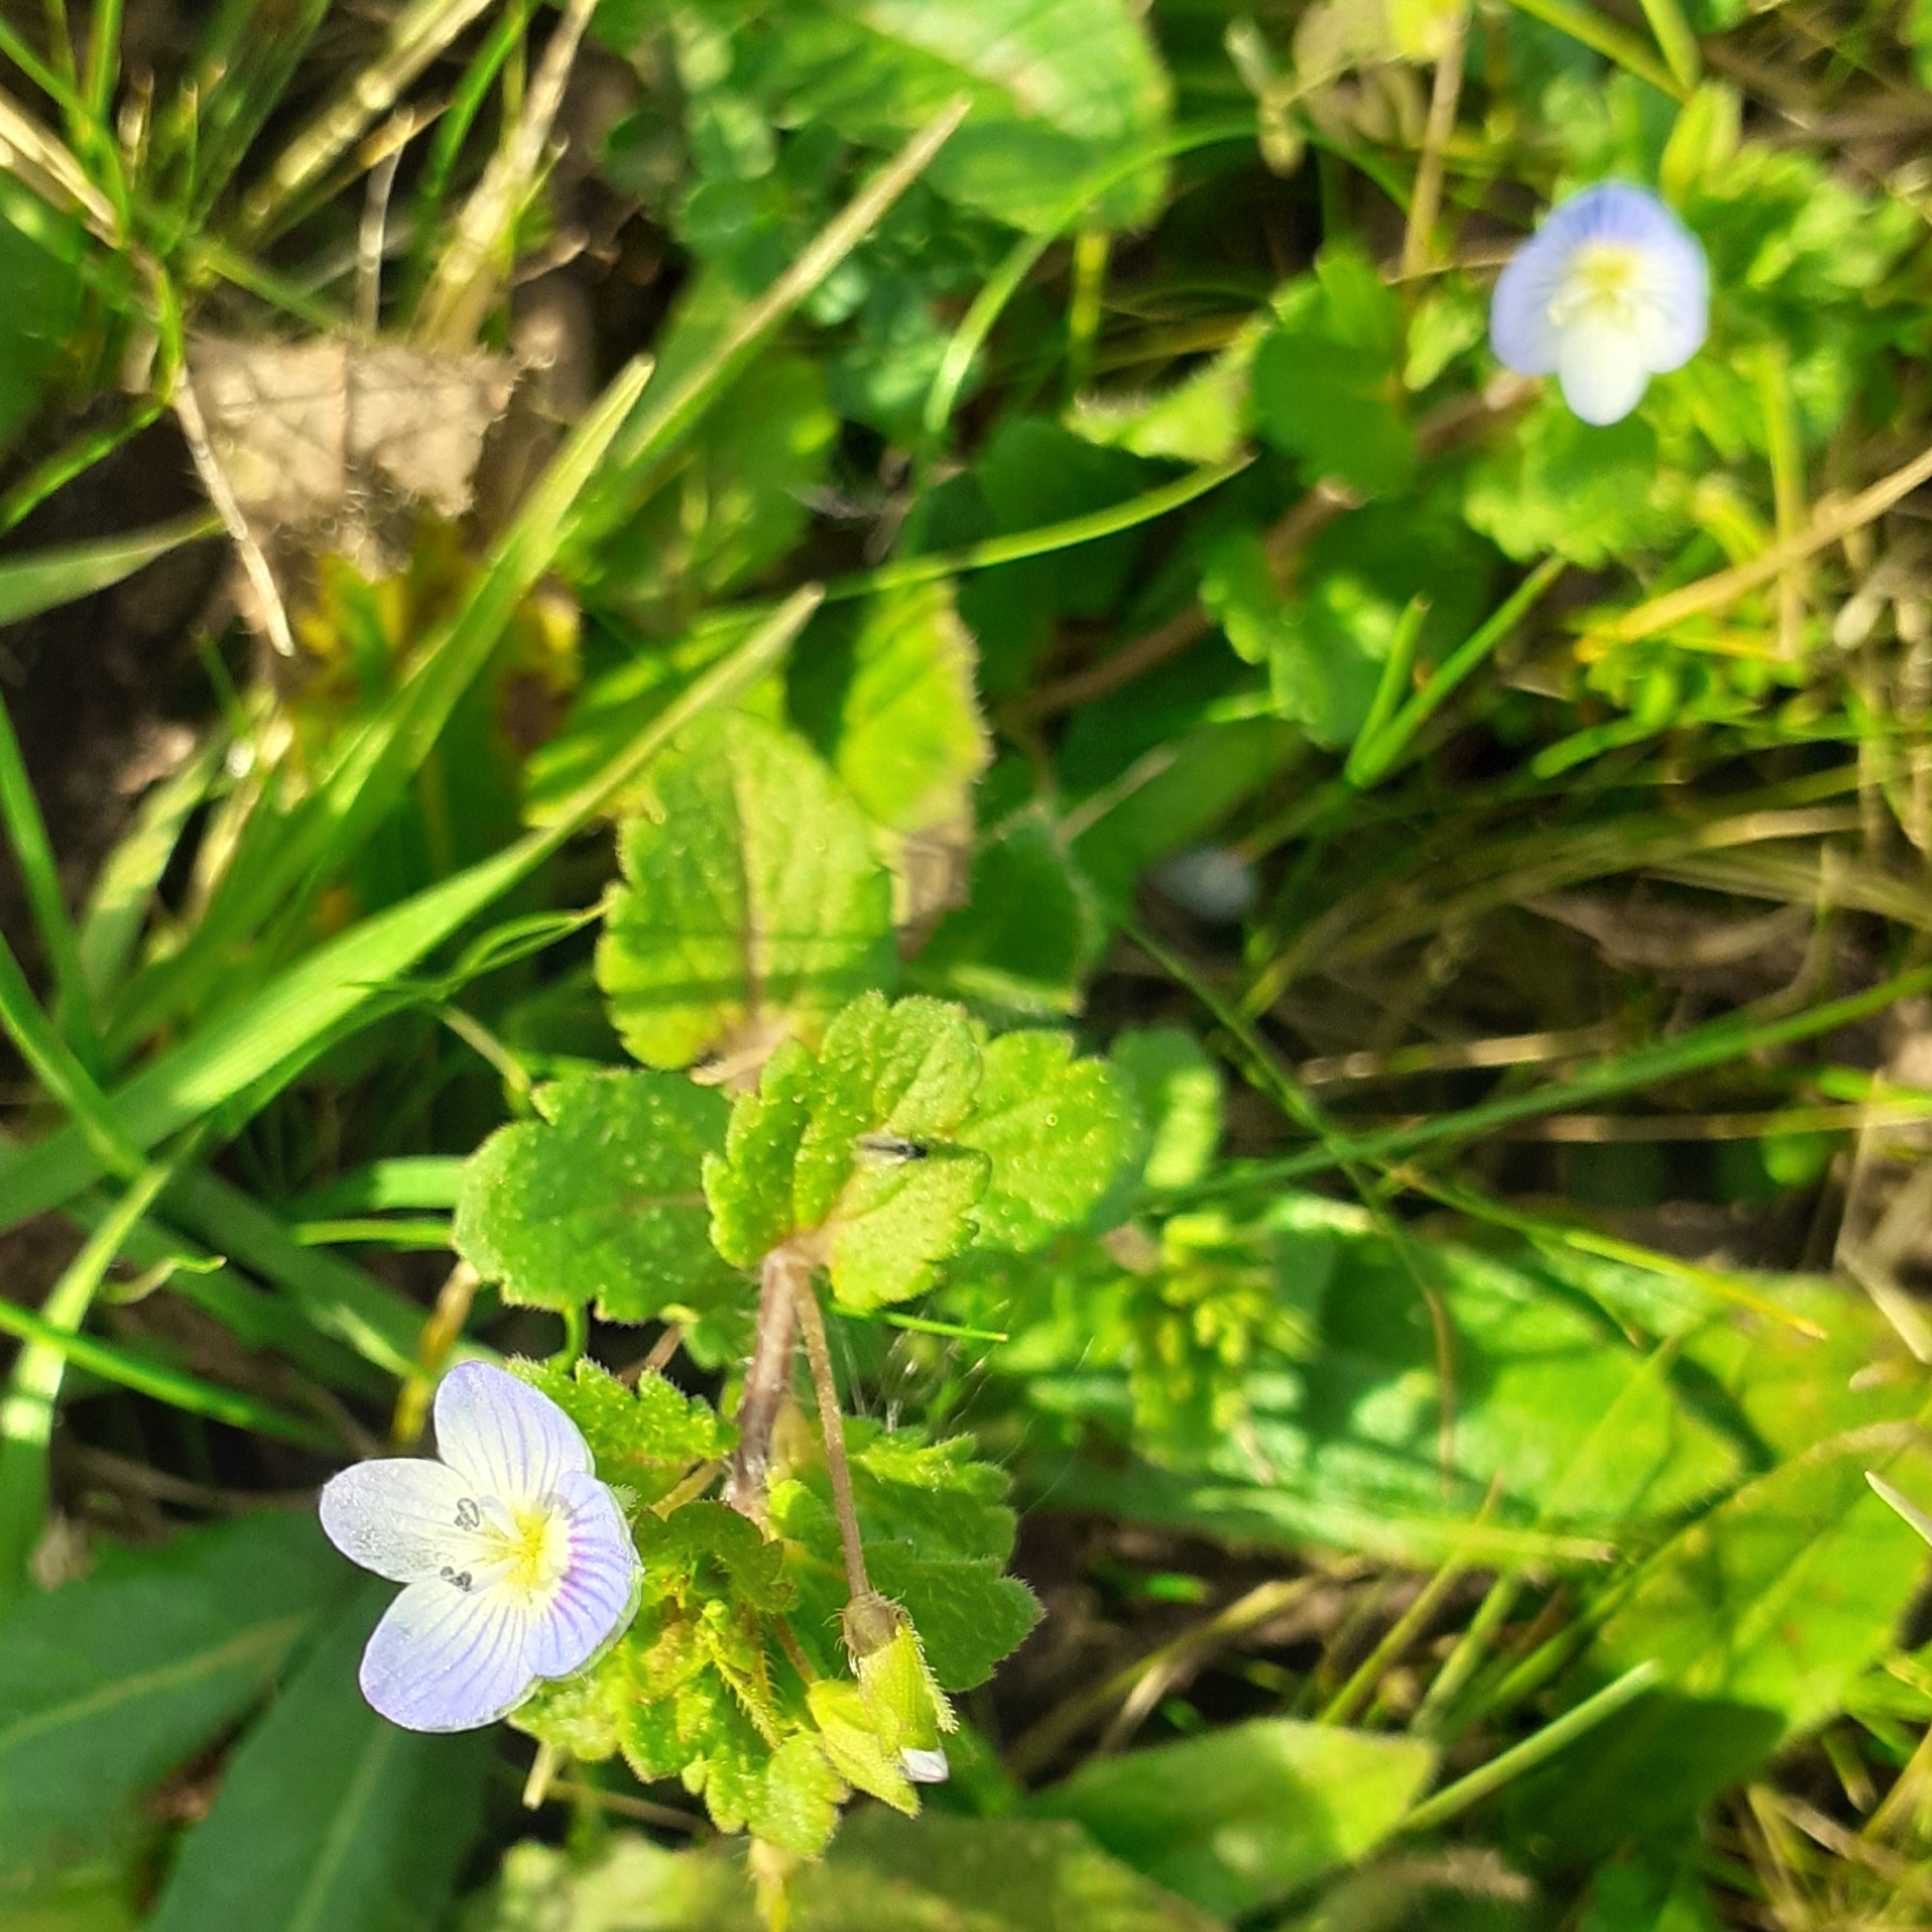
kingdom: Plantae
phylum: Tracheophyta
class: Magnoliopsida
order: Lamiales
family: Plantaginaceae
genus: Veronica
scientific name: Veronica persica
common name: Common field-speedwell
